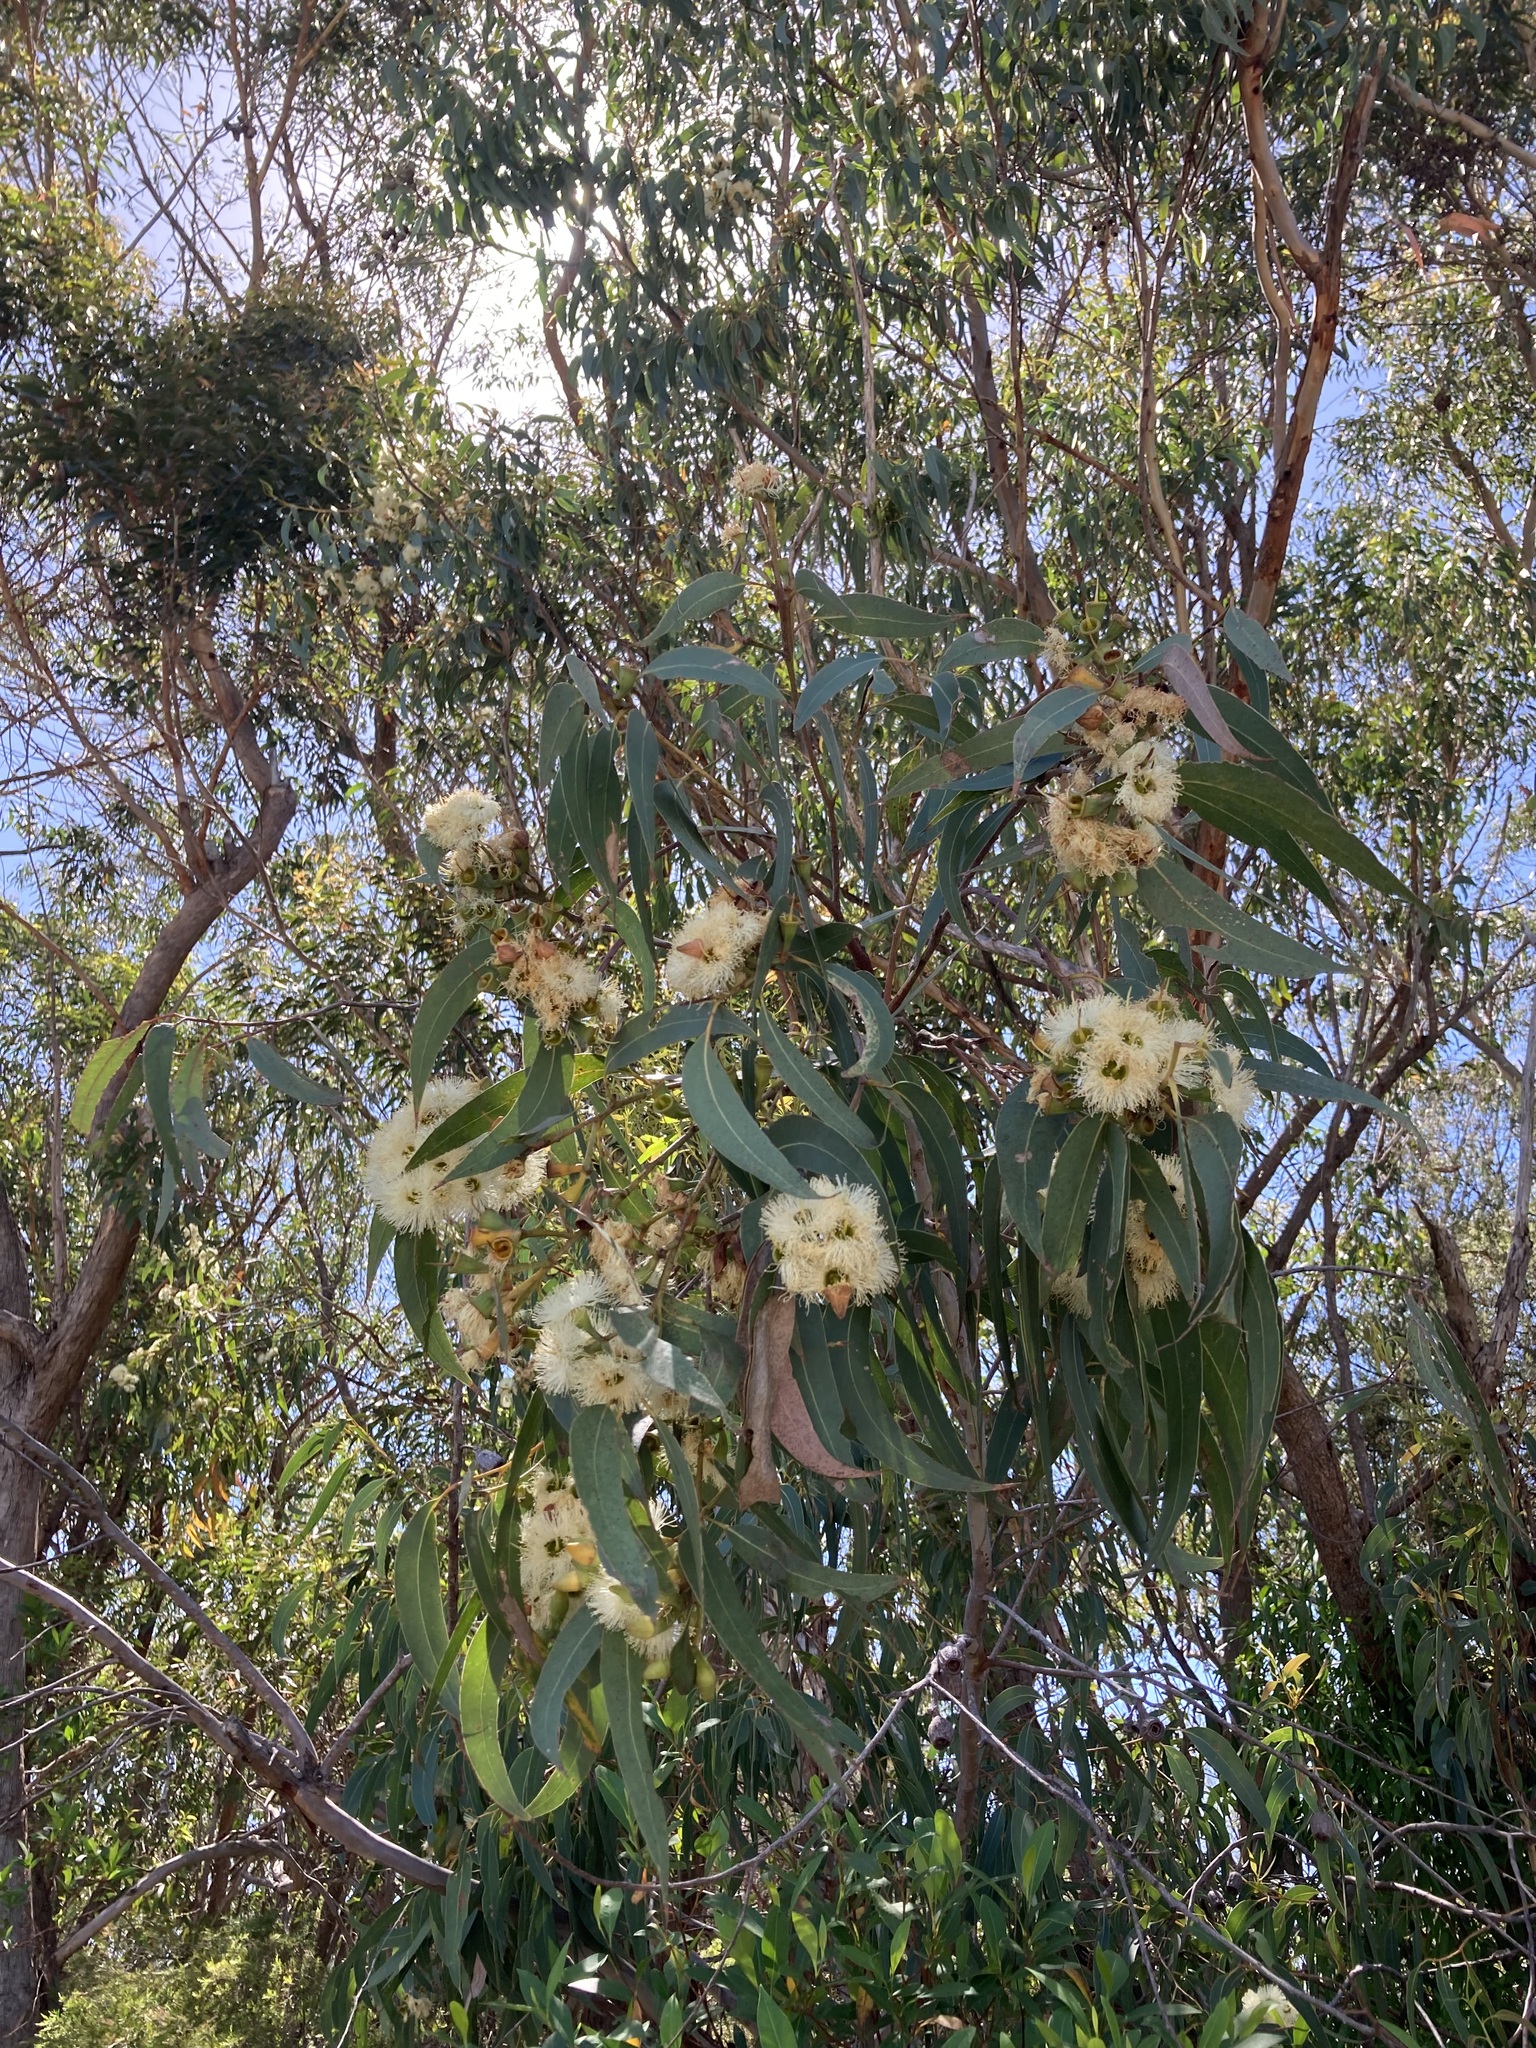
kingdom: Plantae
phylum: Tracheophyta
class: Magnoliopsida
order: Myrtales
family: Myrtaceae
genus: Eucalyptus
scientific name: Eucalyptus planchoniana
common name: Bastard-tallow-wood
